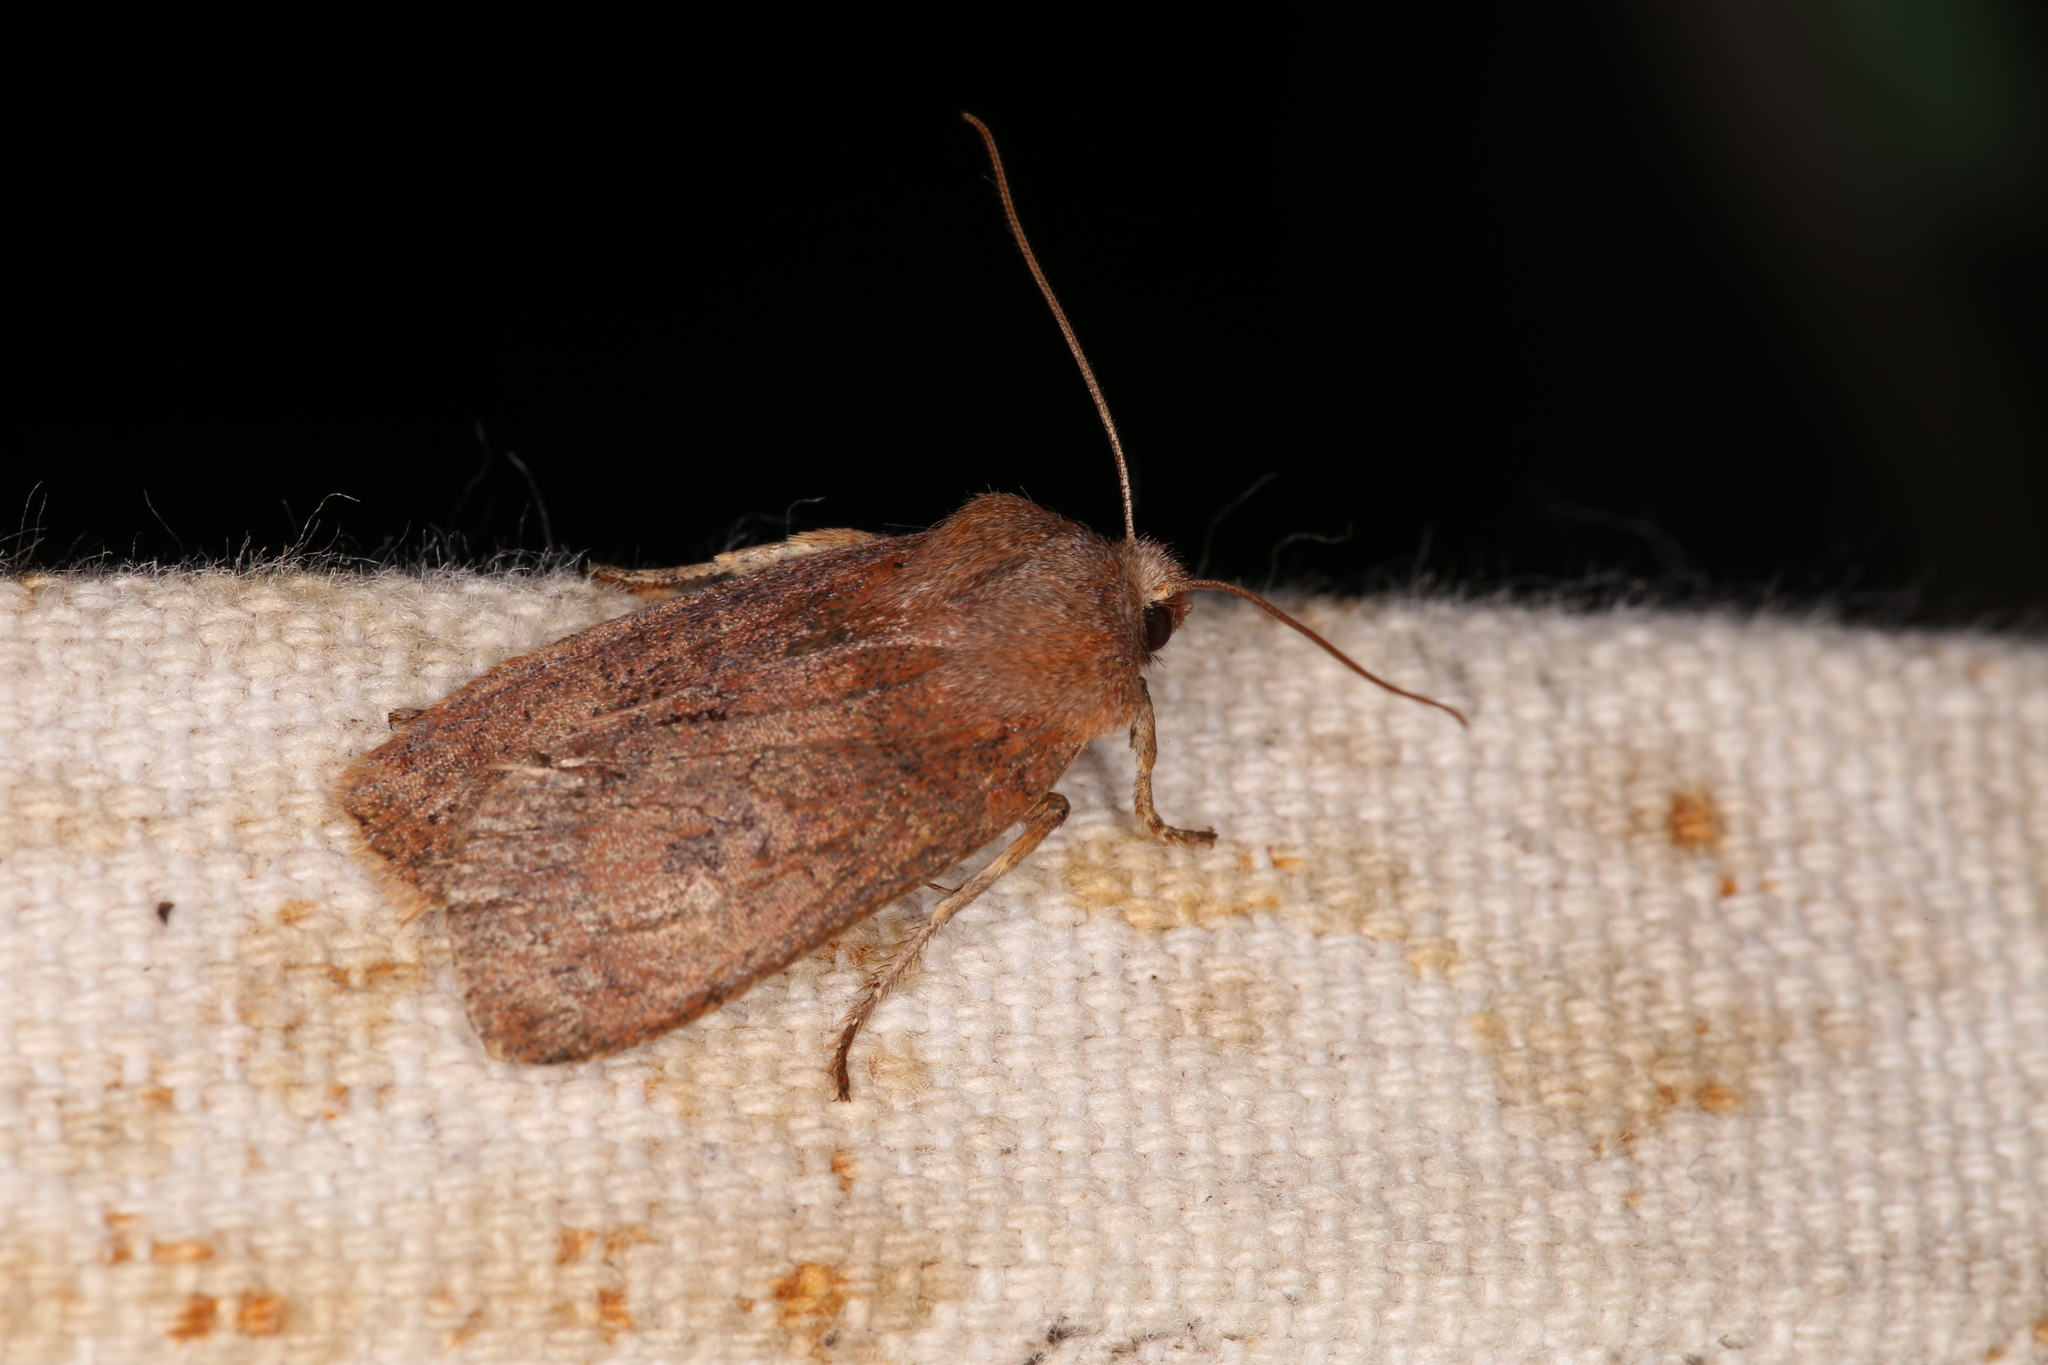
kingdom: Animalia
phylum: Arthropoda
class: Insecta
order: Lepidoptera
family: Noctuidae
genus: Conistra
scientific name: Conistra vaccinii
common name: Chestnut
